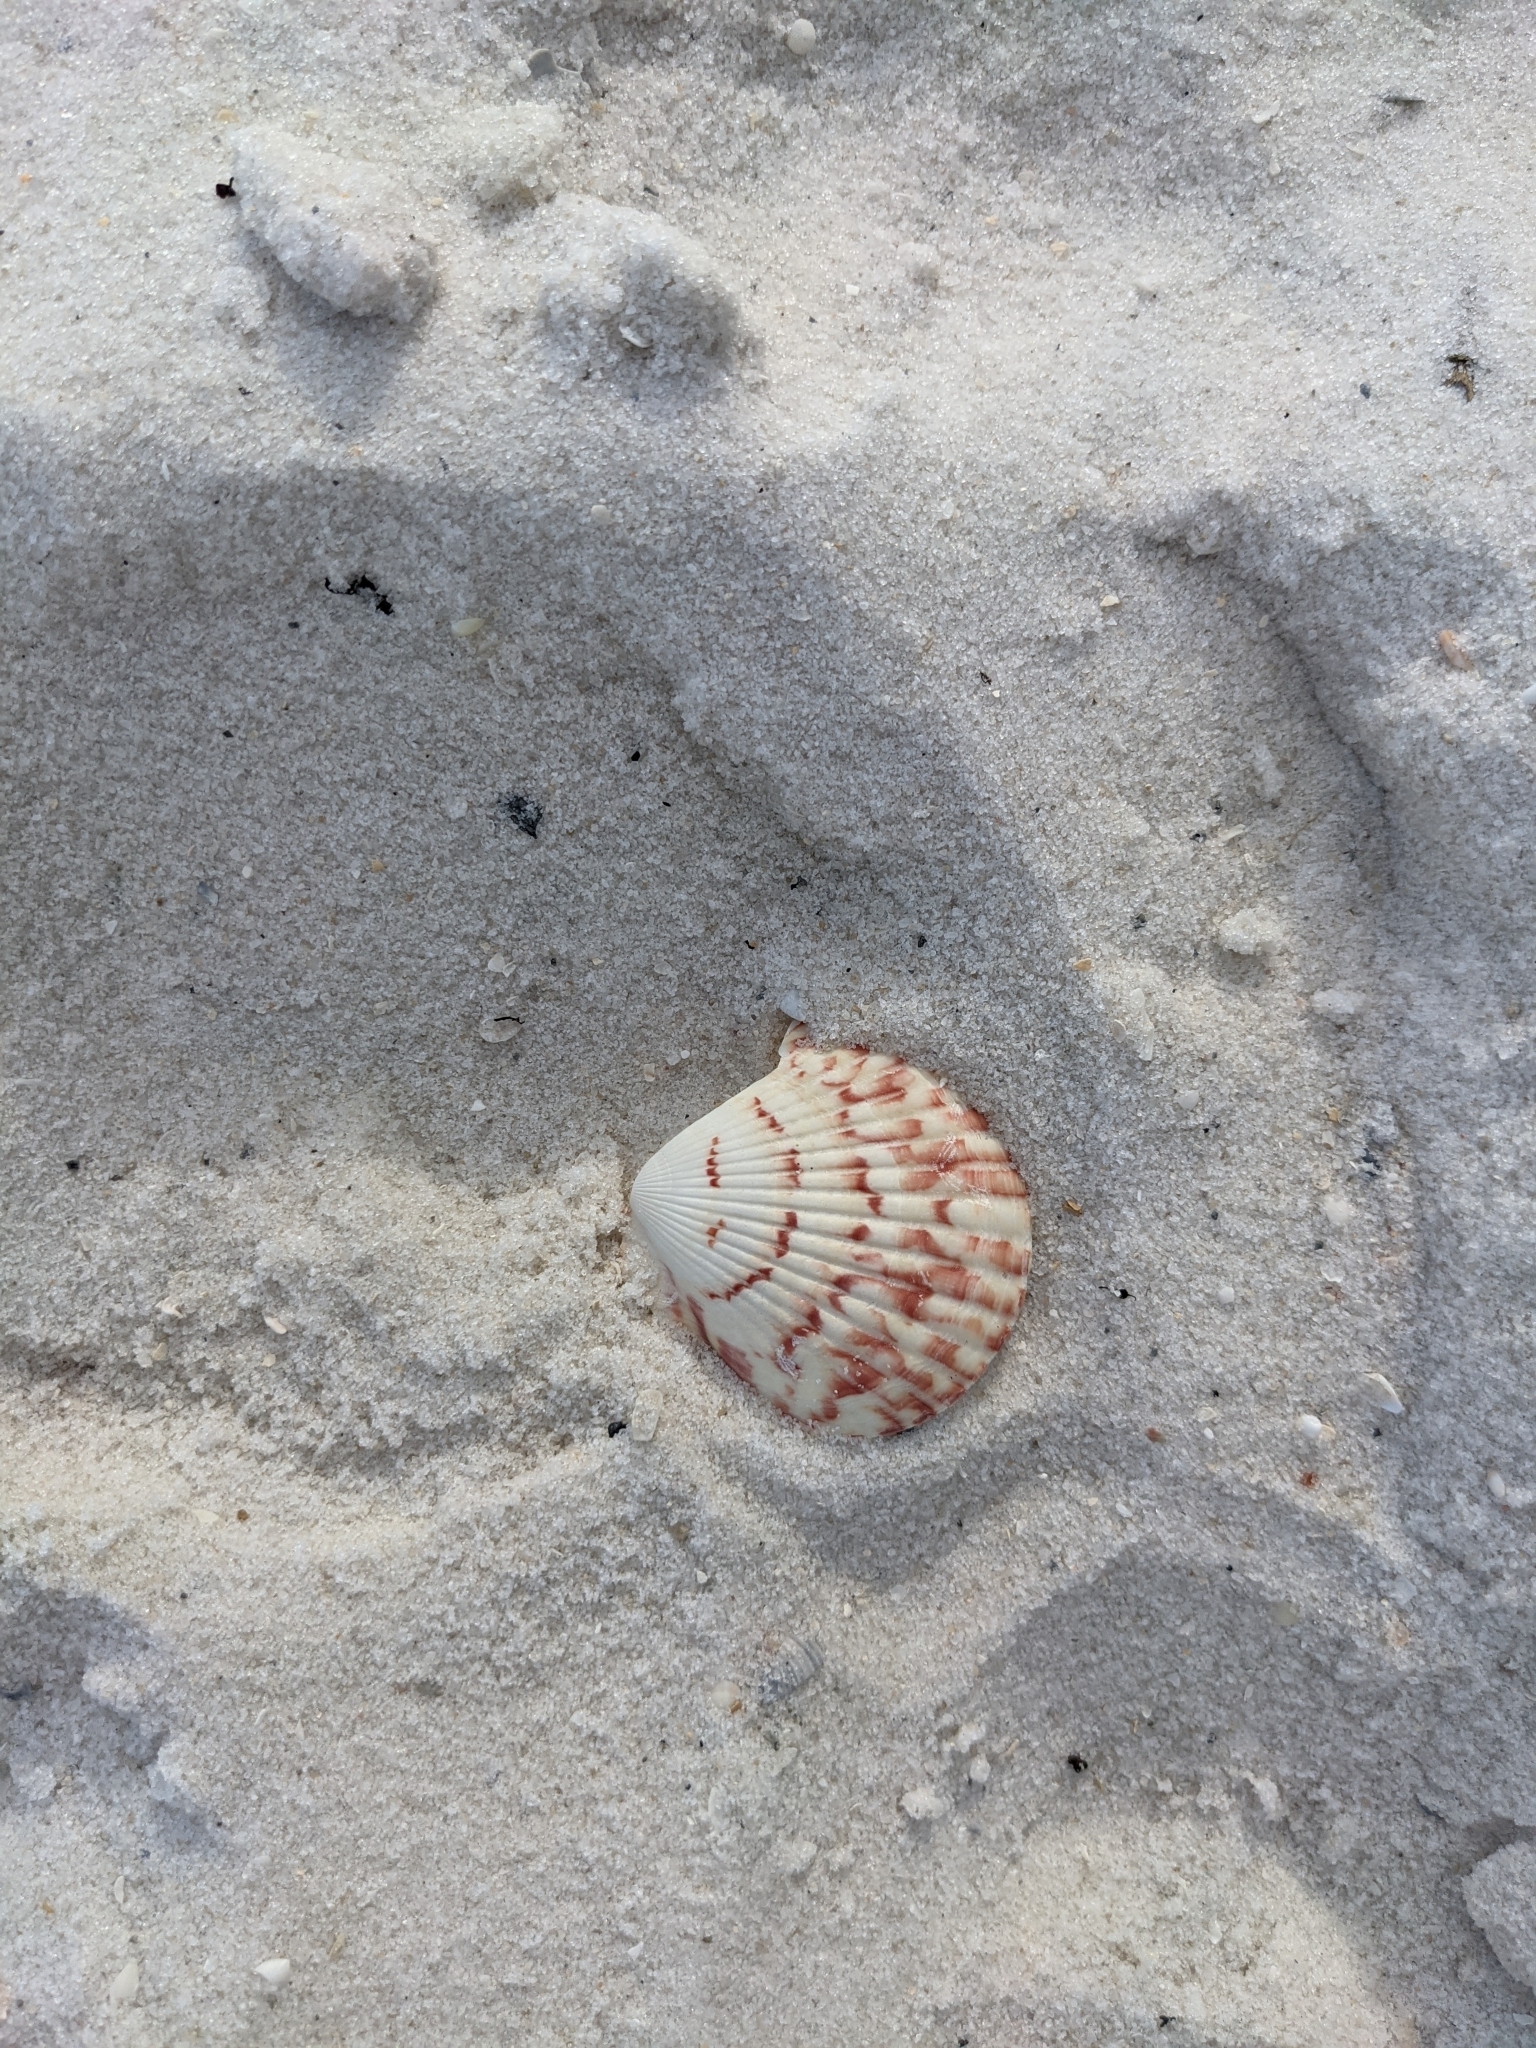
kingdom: Animalia
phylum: Mollusca
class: Bivalvia
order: Pectinida
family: Pectinidae
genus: Argopecten
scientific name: Argopecten gibbus
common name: Atlantic calico scallop
